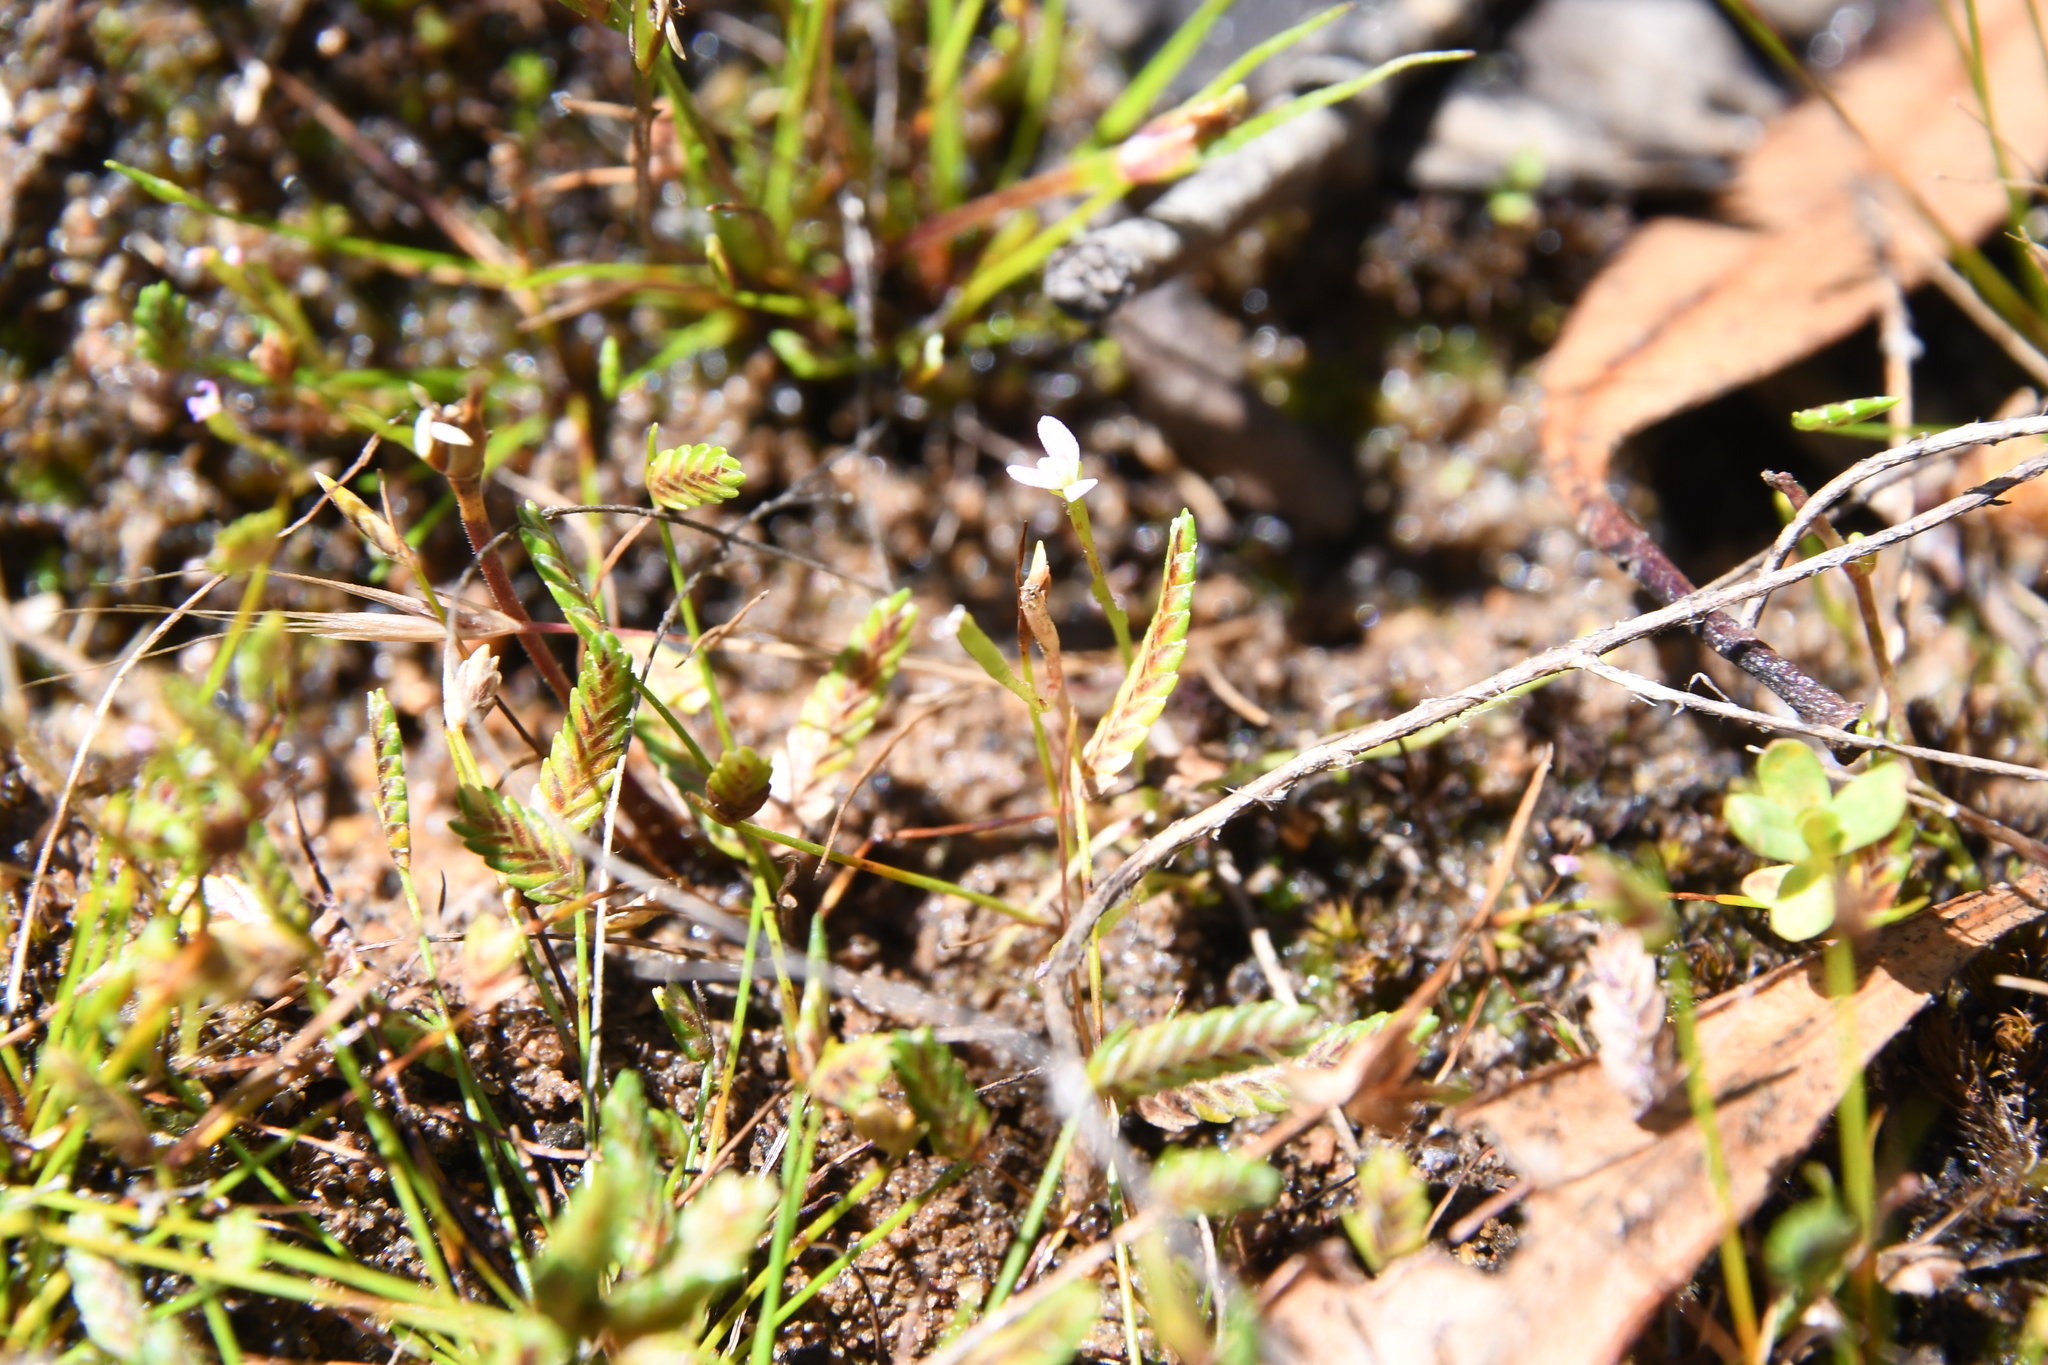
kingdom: Plantae
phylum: Tracheophyta
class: Liliopsida
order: Poales
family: Cyperaceae
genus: Isolepis
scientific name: Isolepis levynsiana
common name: Sedge
